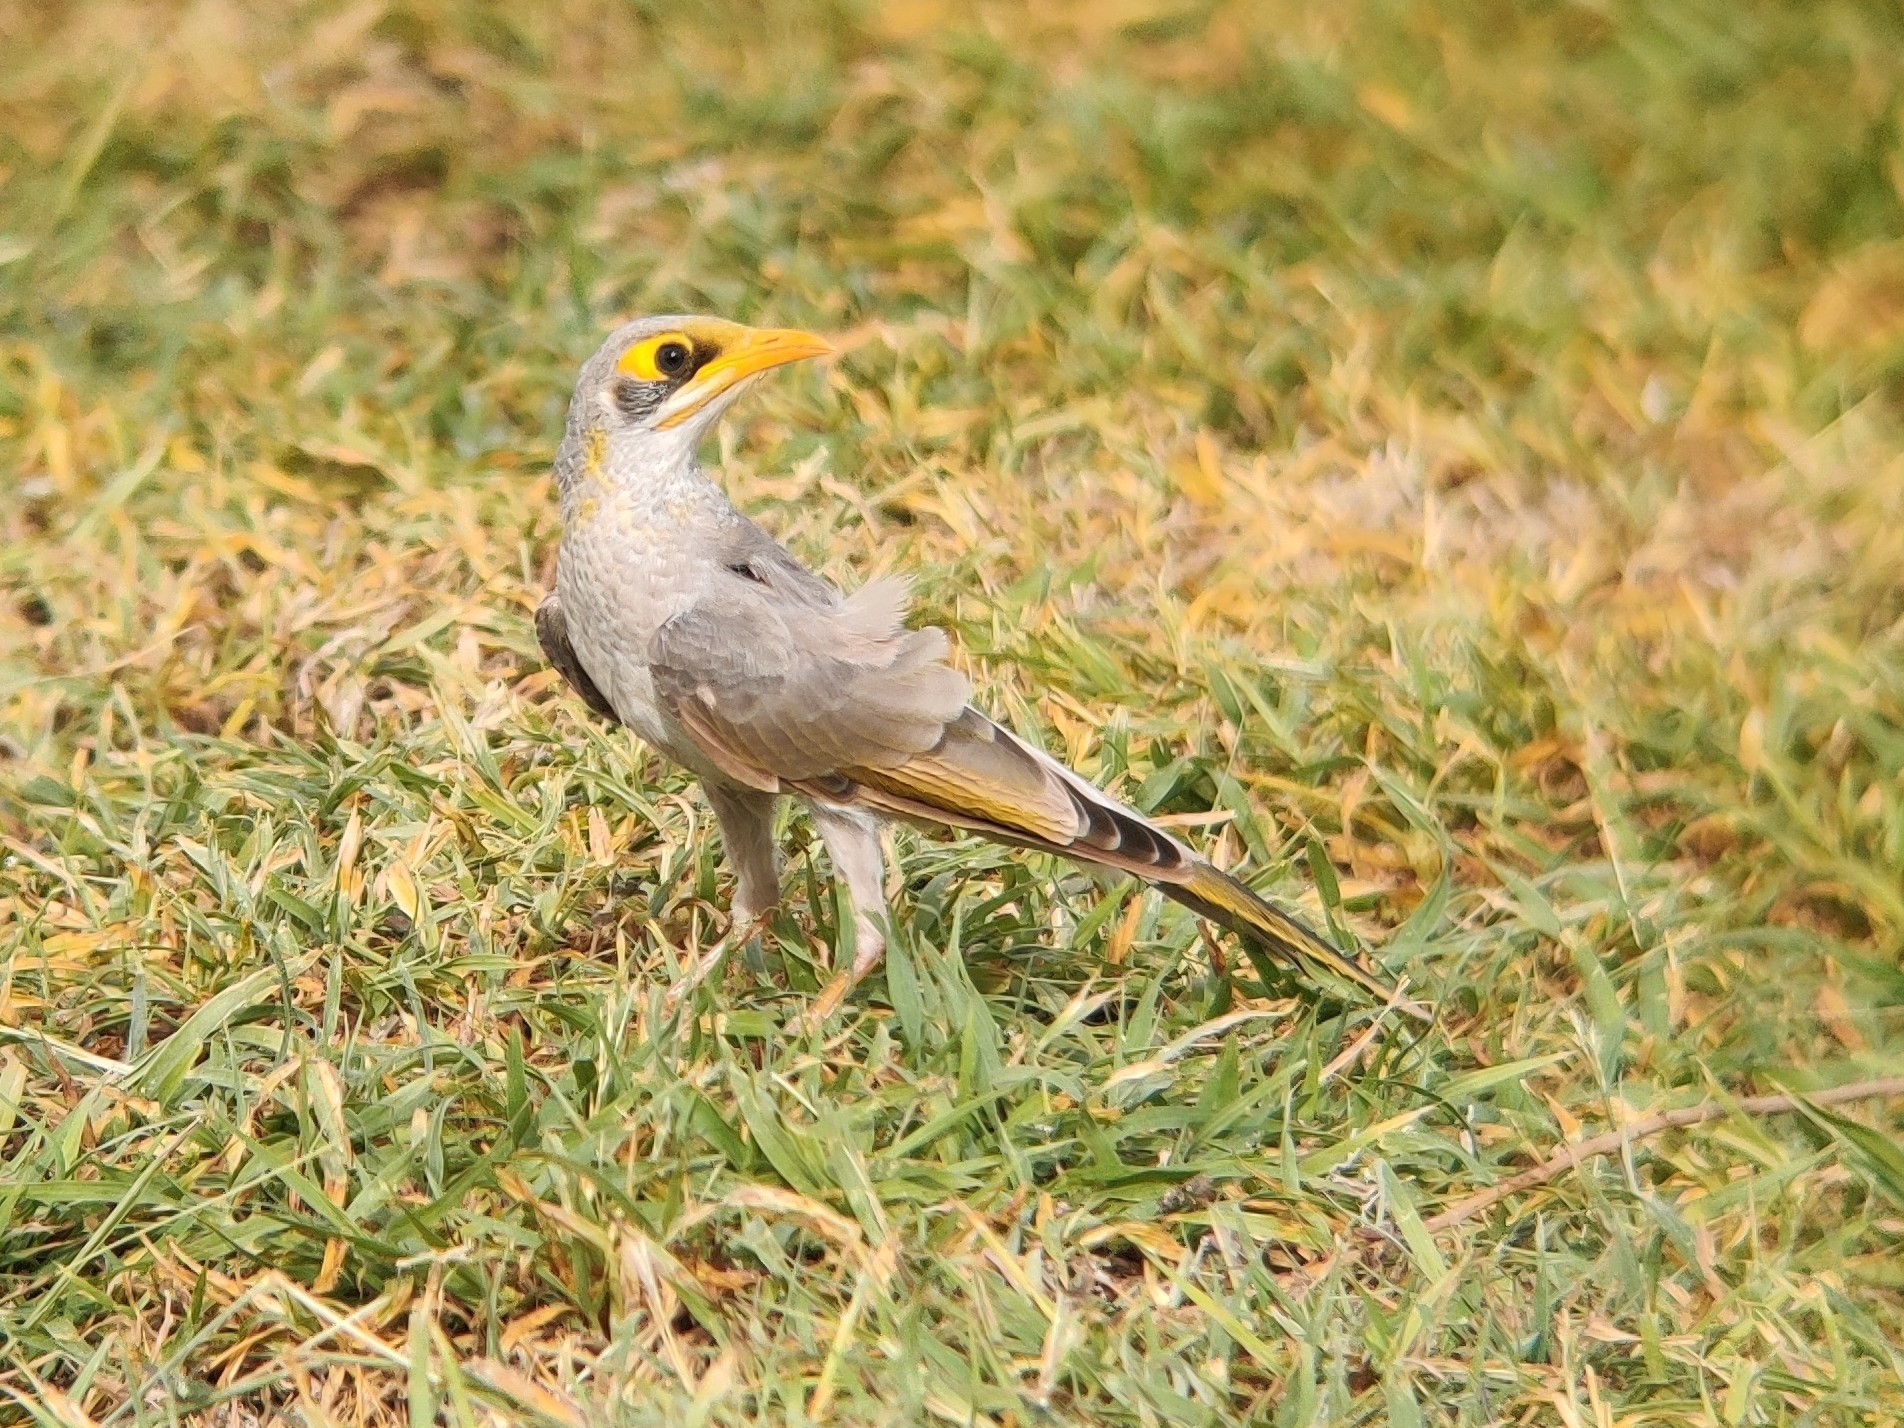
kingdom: Animalia
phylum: Chordata
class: Aves
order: Passeriformes
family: Meliphagidae
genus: Manorina
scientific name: Manorina flavigula
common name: Yellow-throated miner
